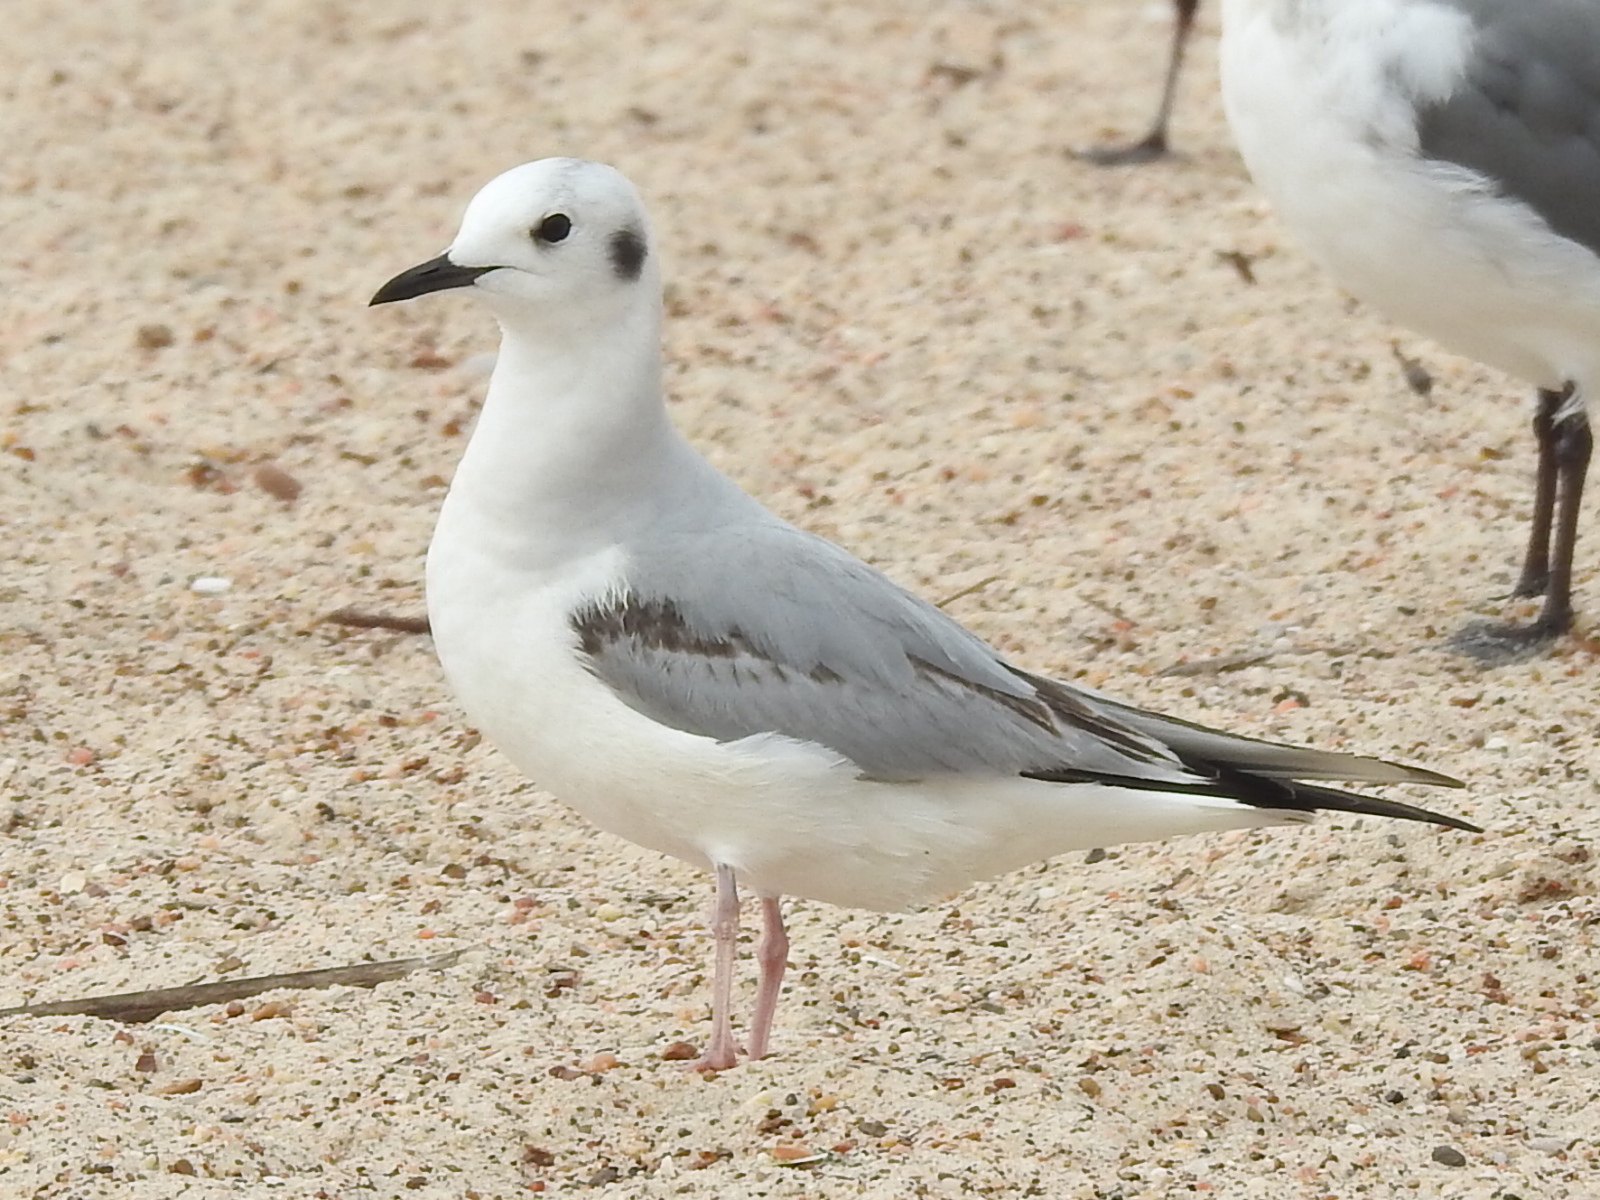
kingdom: Animalia
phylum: Chordata
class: Aves
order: Charadriiformes
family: Laridae
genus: Chroicocephalus
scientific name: Chroicocephalus philadelphia
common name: Bonaparte's gull
